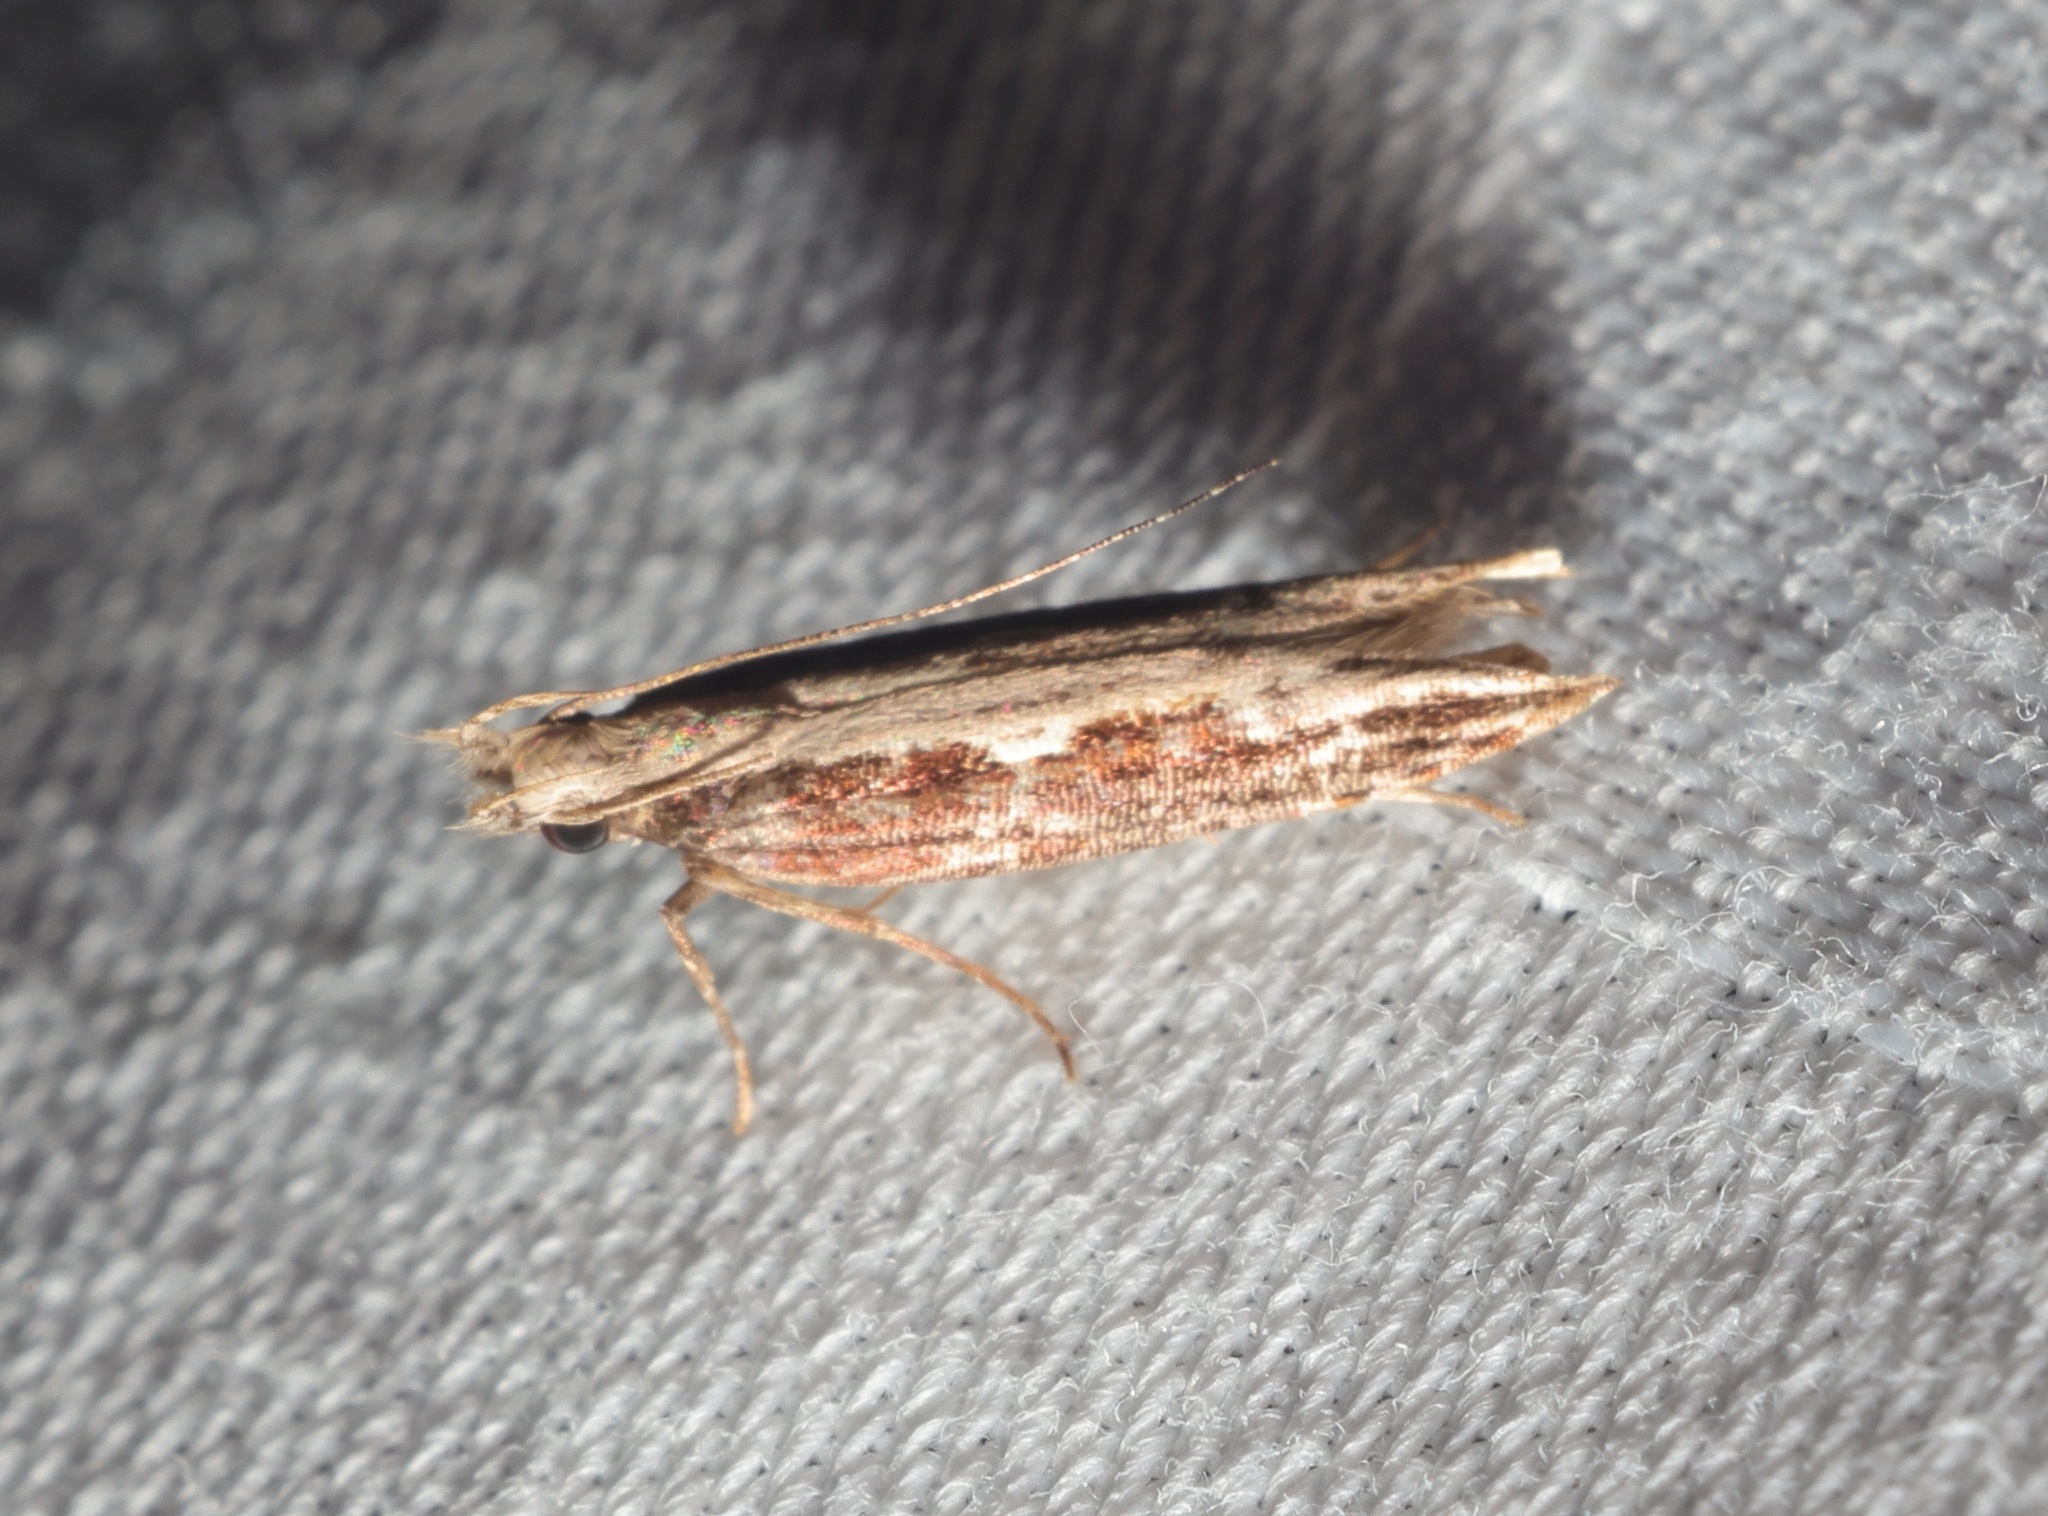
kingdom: Animalia
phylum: Arthropoda
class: Insecta
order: Lepidoptera
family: Gelechiidae
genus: Hypatima
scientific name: Hypatima spathota
